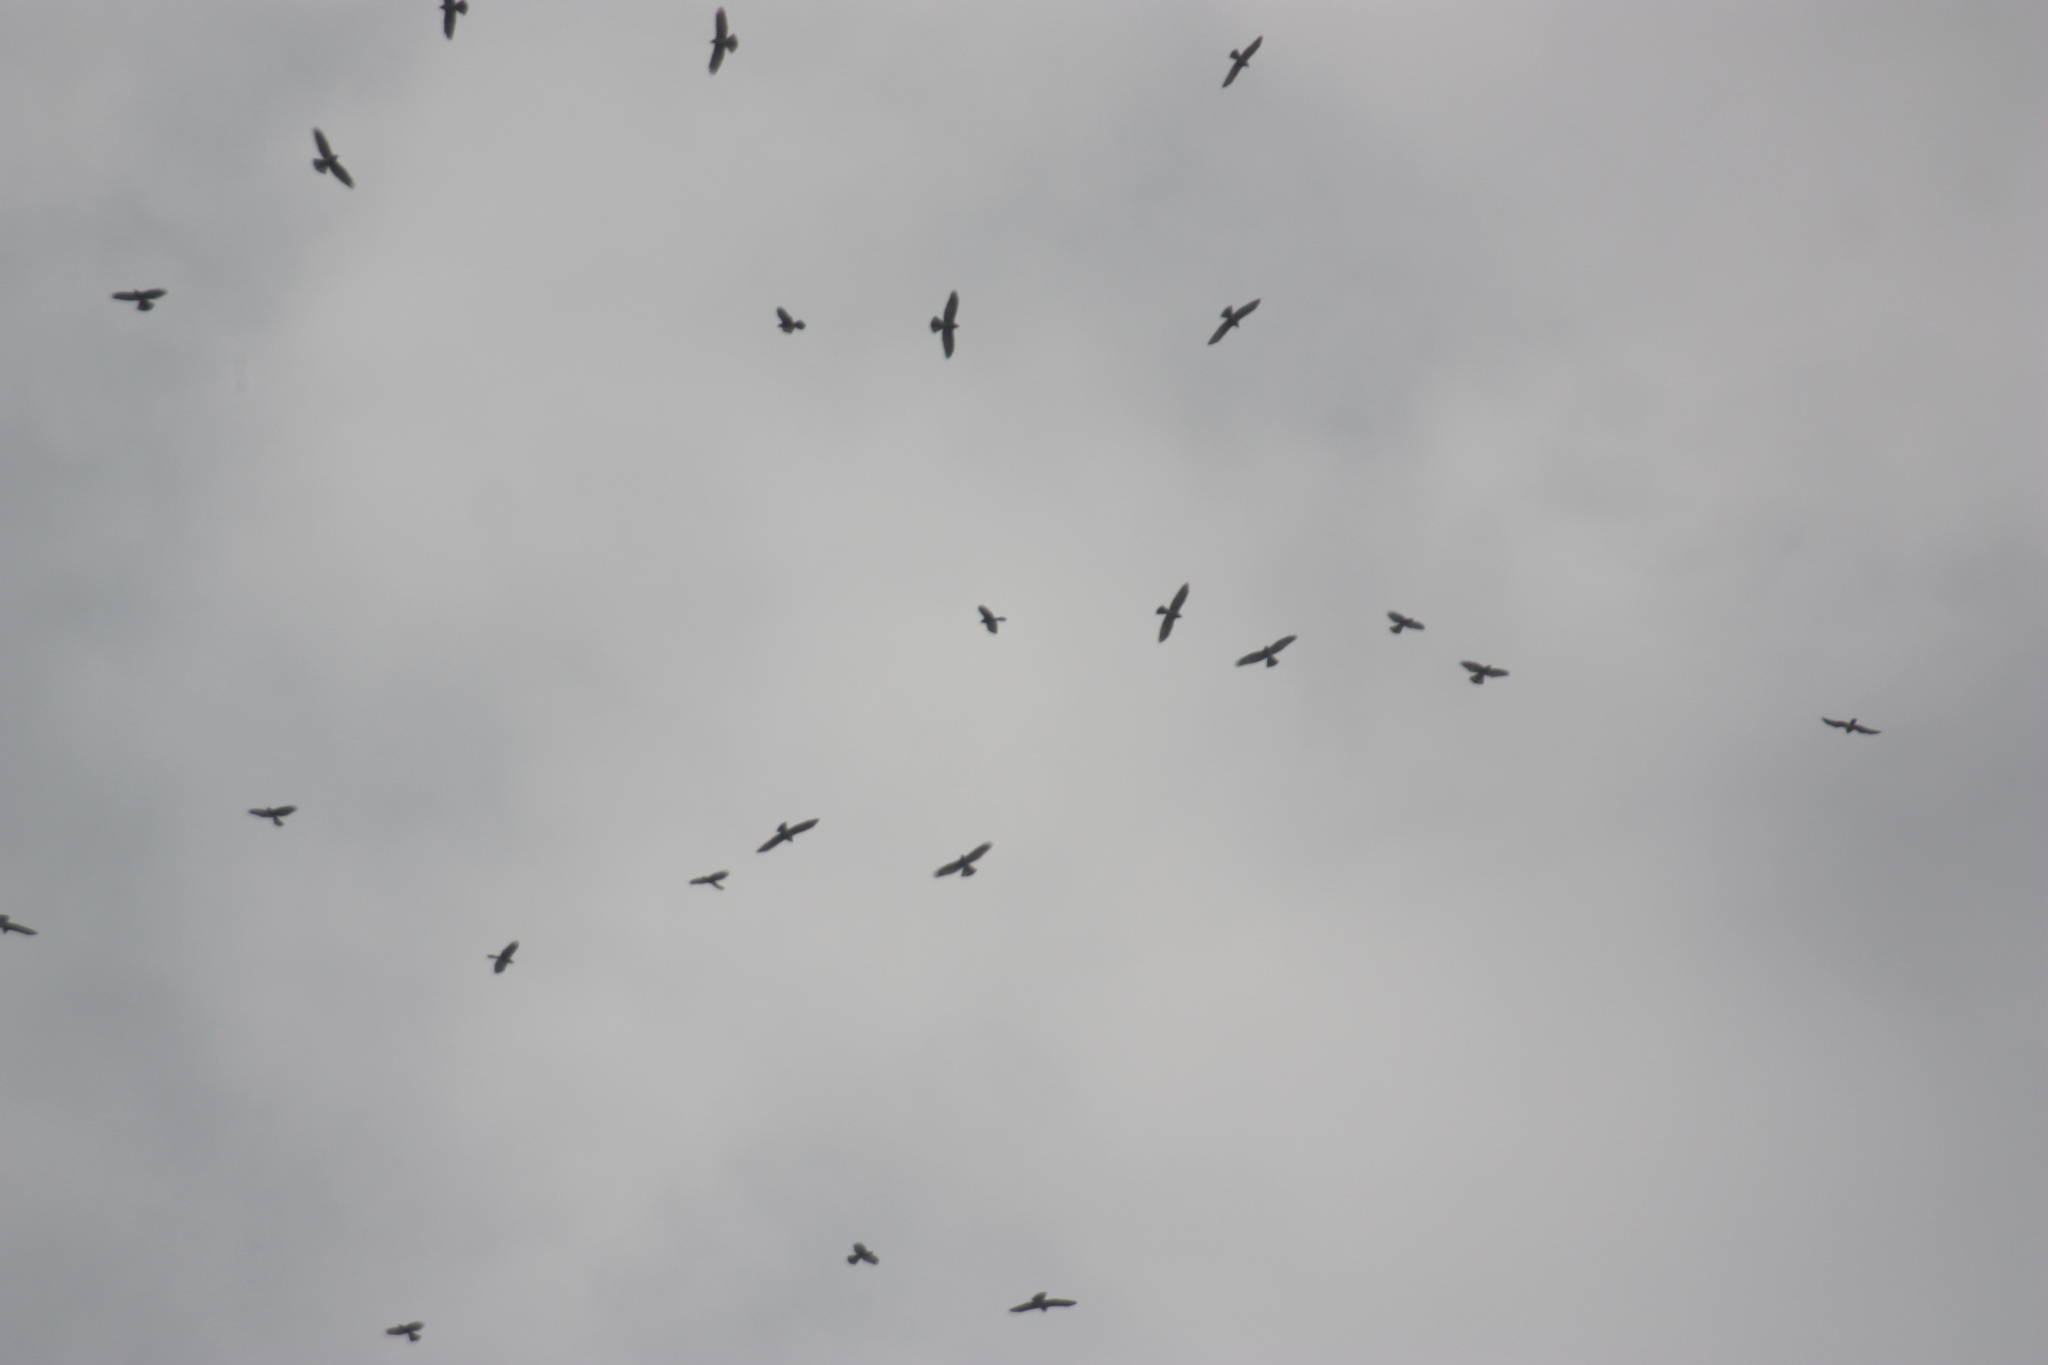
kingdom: Animalia
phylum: Chordata
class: Aves
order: Accipitriformes
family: Accipitridae
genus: Butastur
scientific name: Butastur indicus
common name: Grey-faced buzzard
